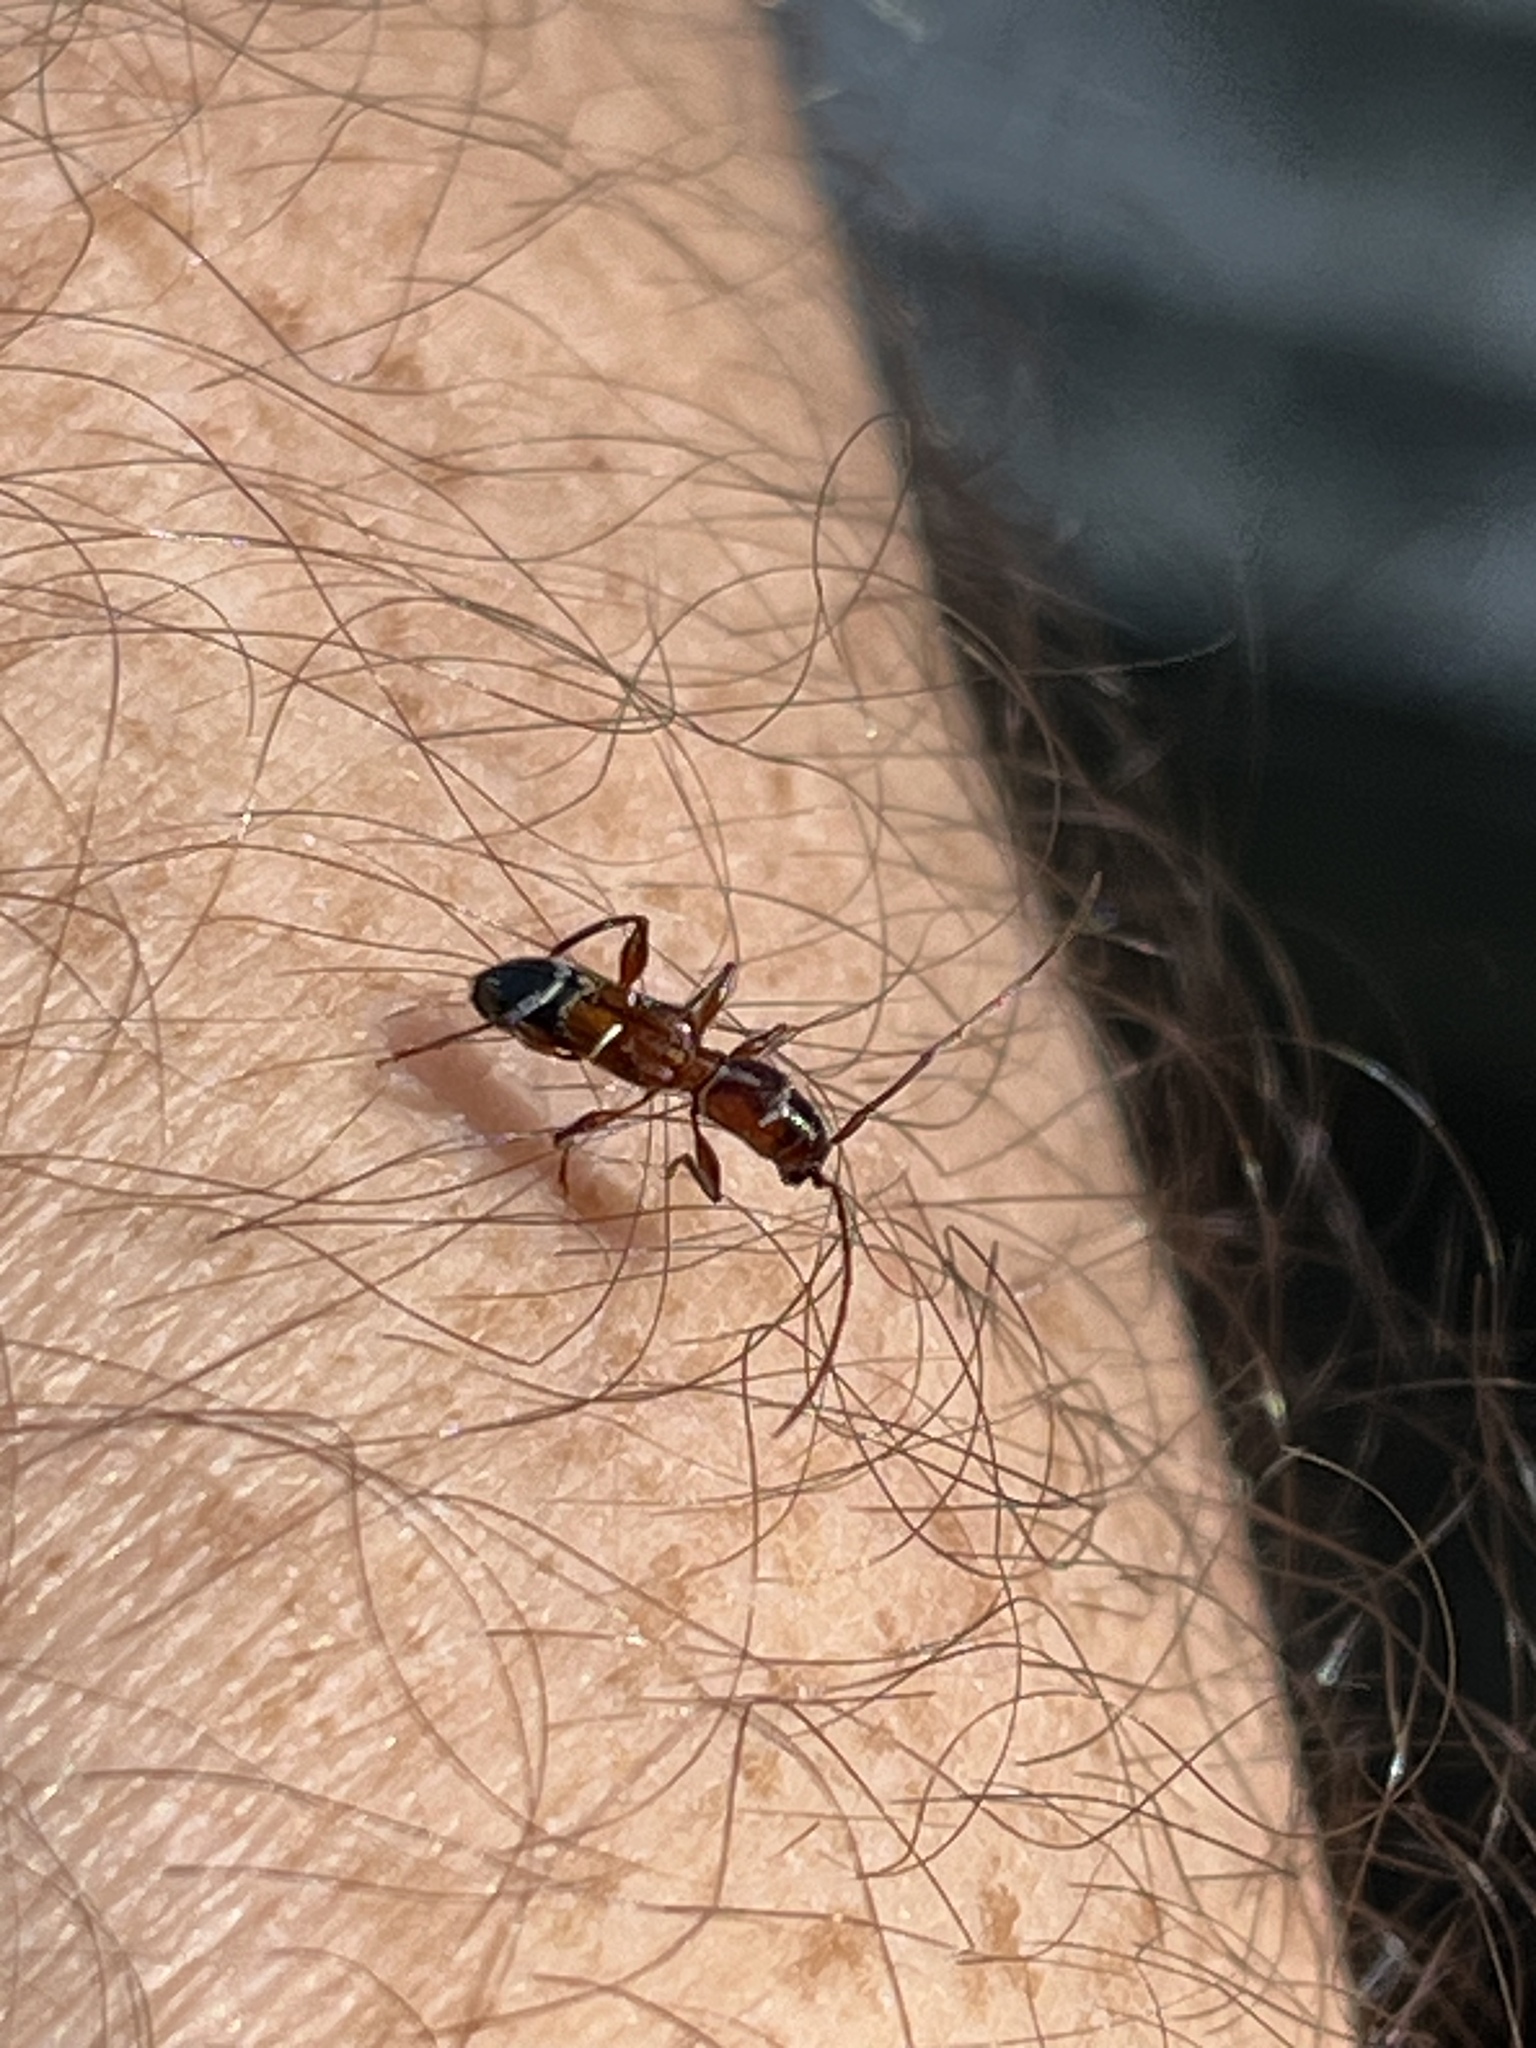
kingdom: Animalia
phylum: Arthropoda
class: Insecta
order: Coleoptera
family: Cerambycidae
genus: Euderces
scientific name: Euderces pini
